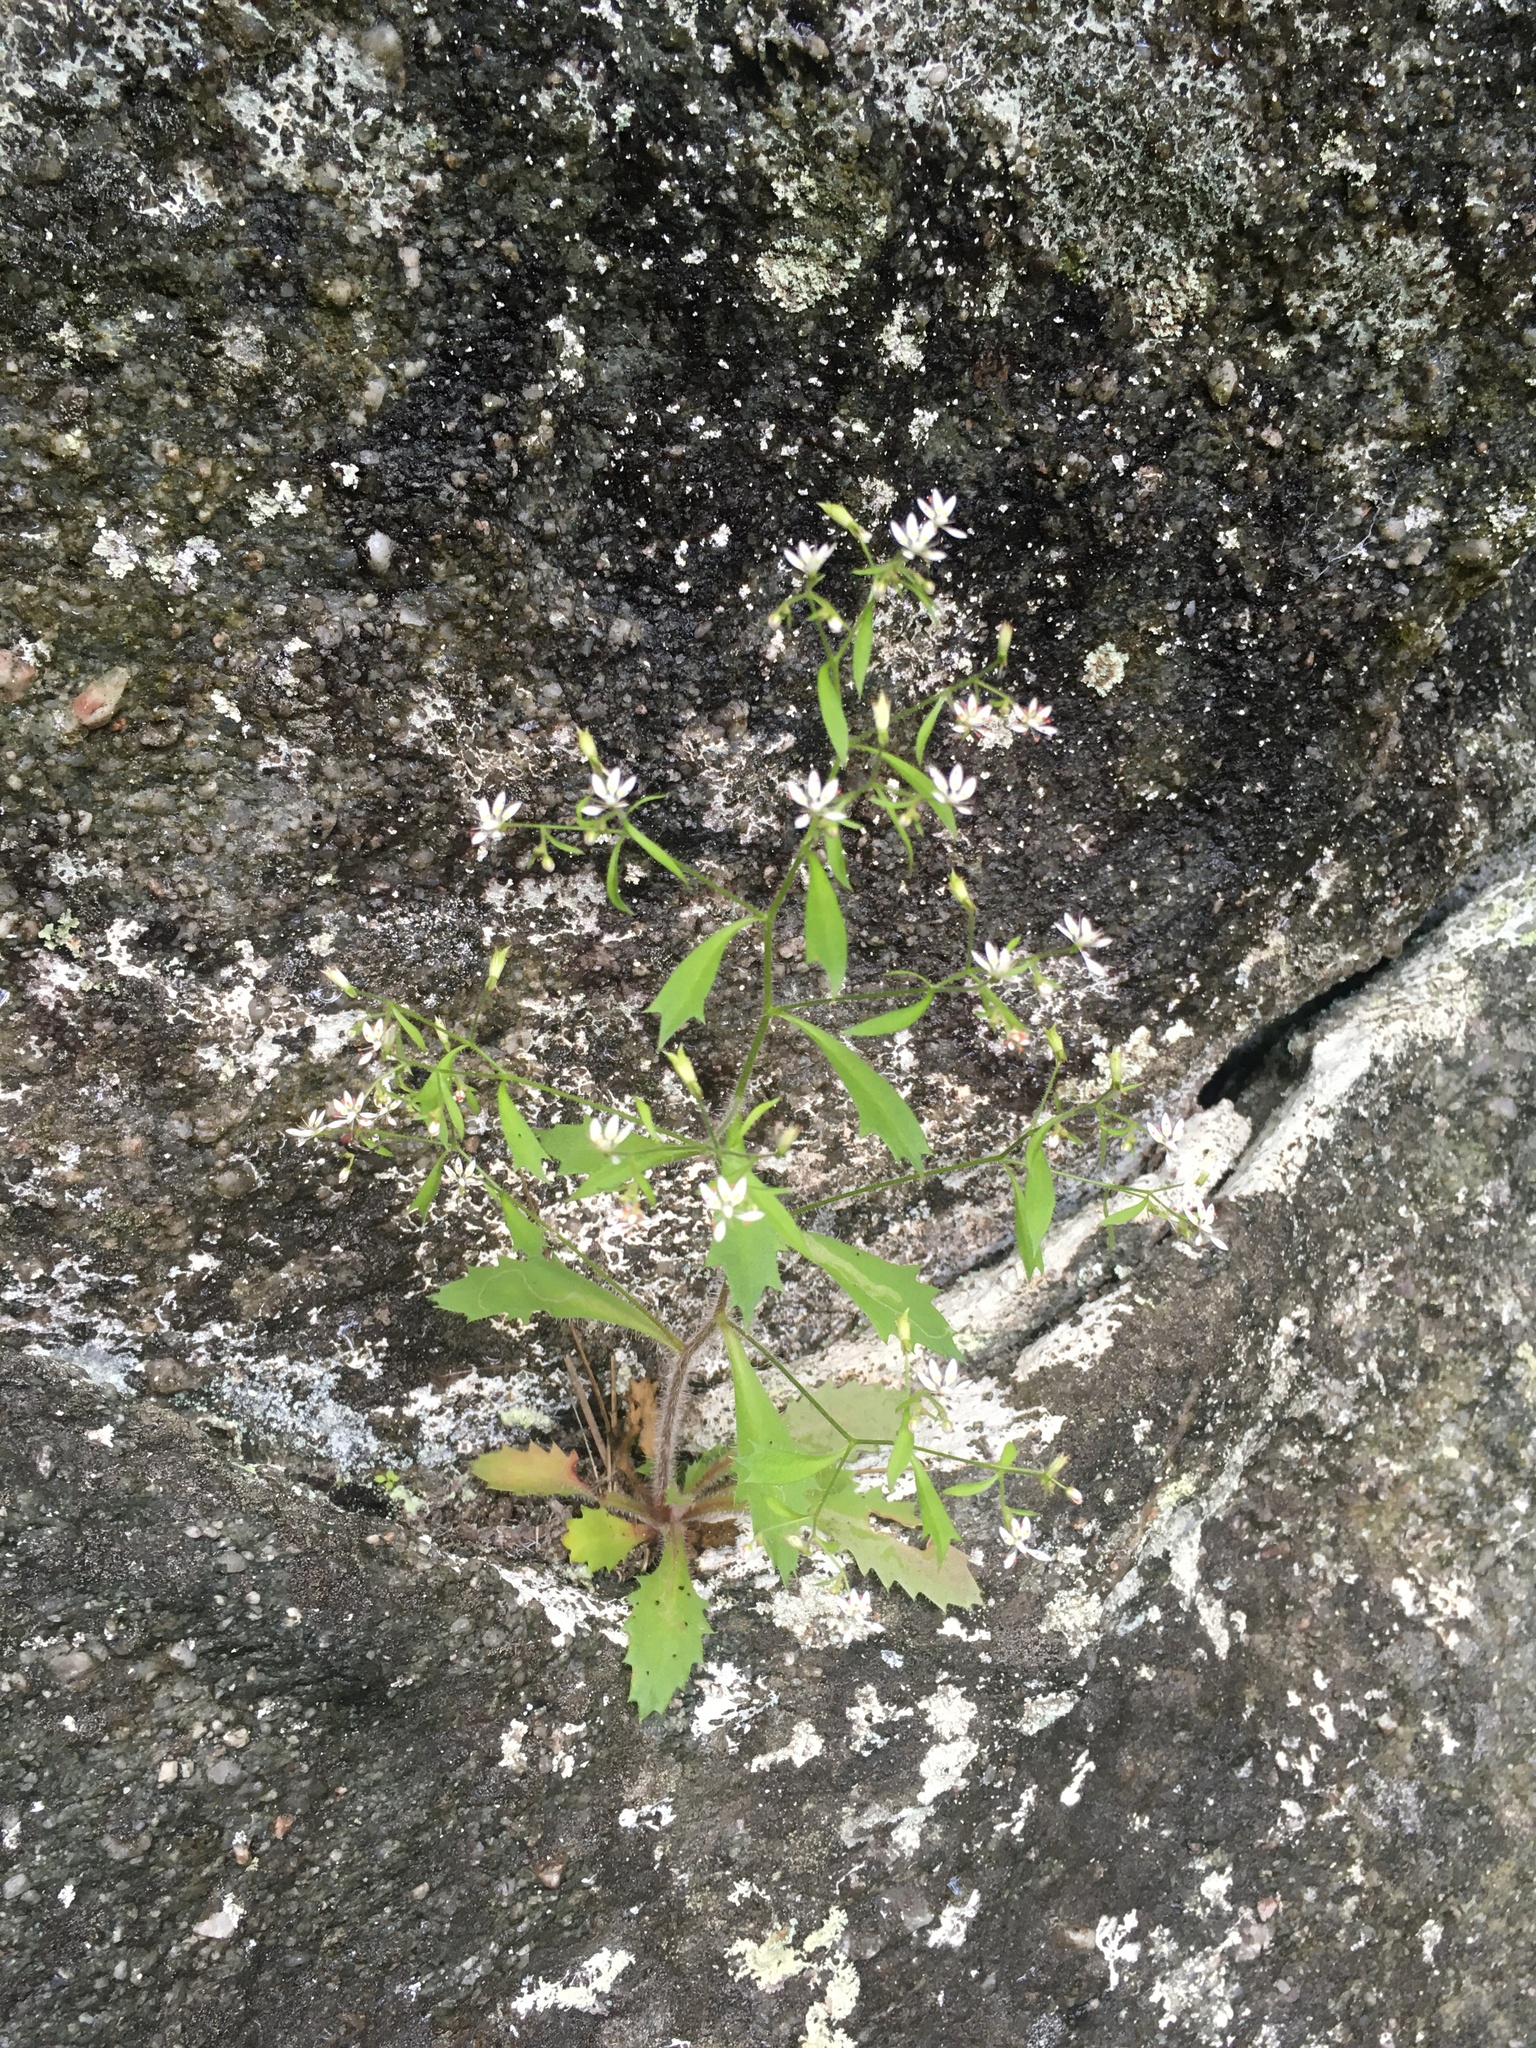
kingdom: Plantae
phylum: Tracheophyta
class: Magnoliopsida
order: Saxifragales
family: Saxifragaceae
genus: Micranthes
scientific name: Micranthes petiolaris
